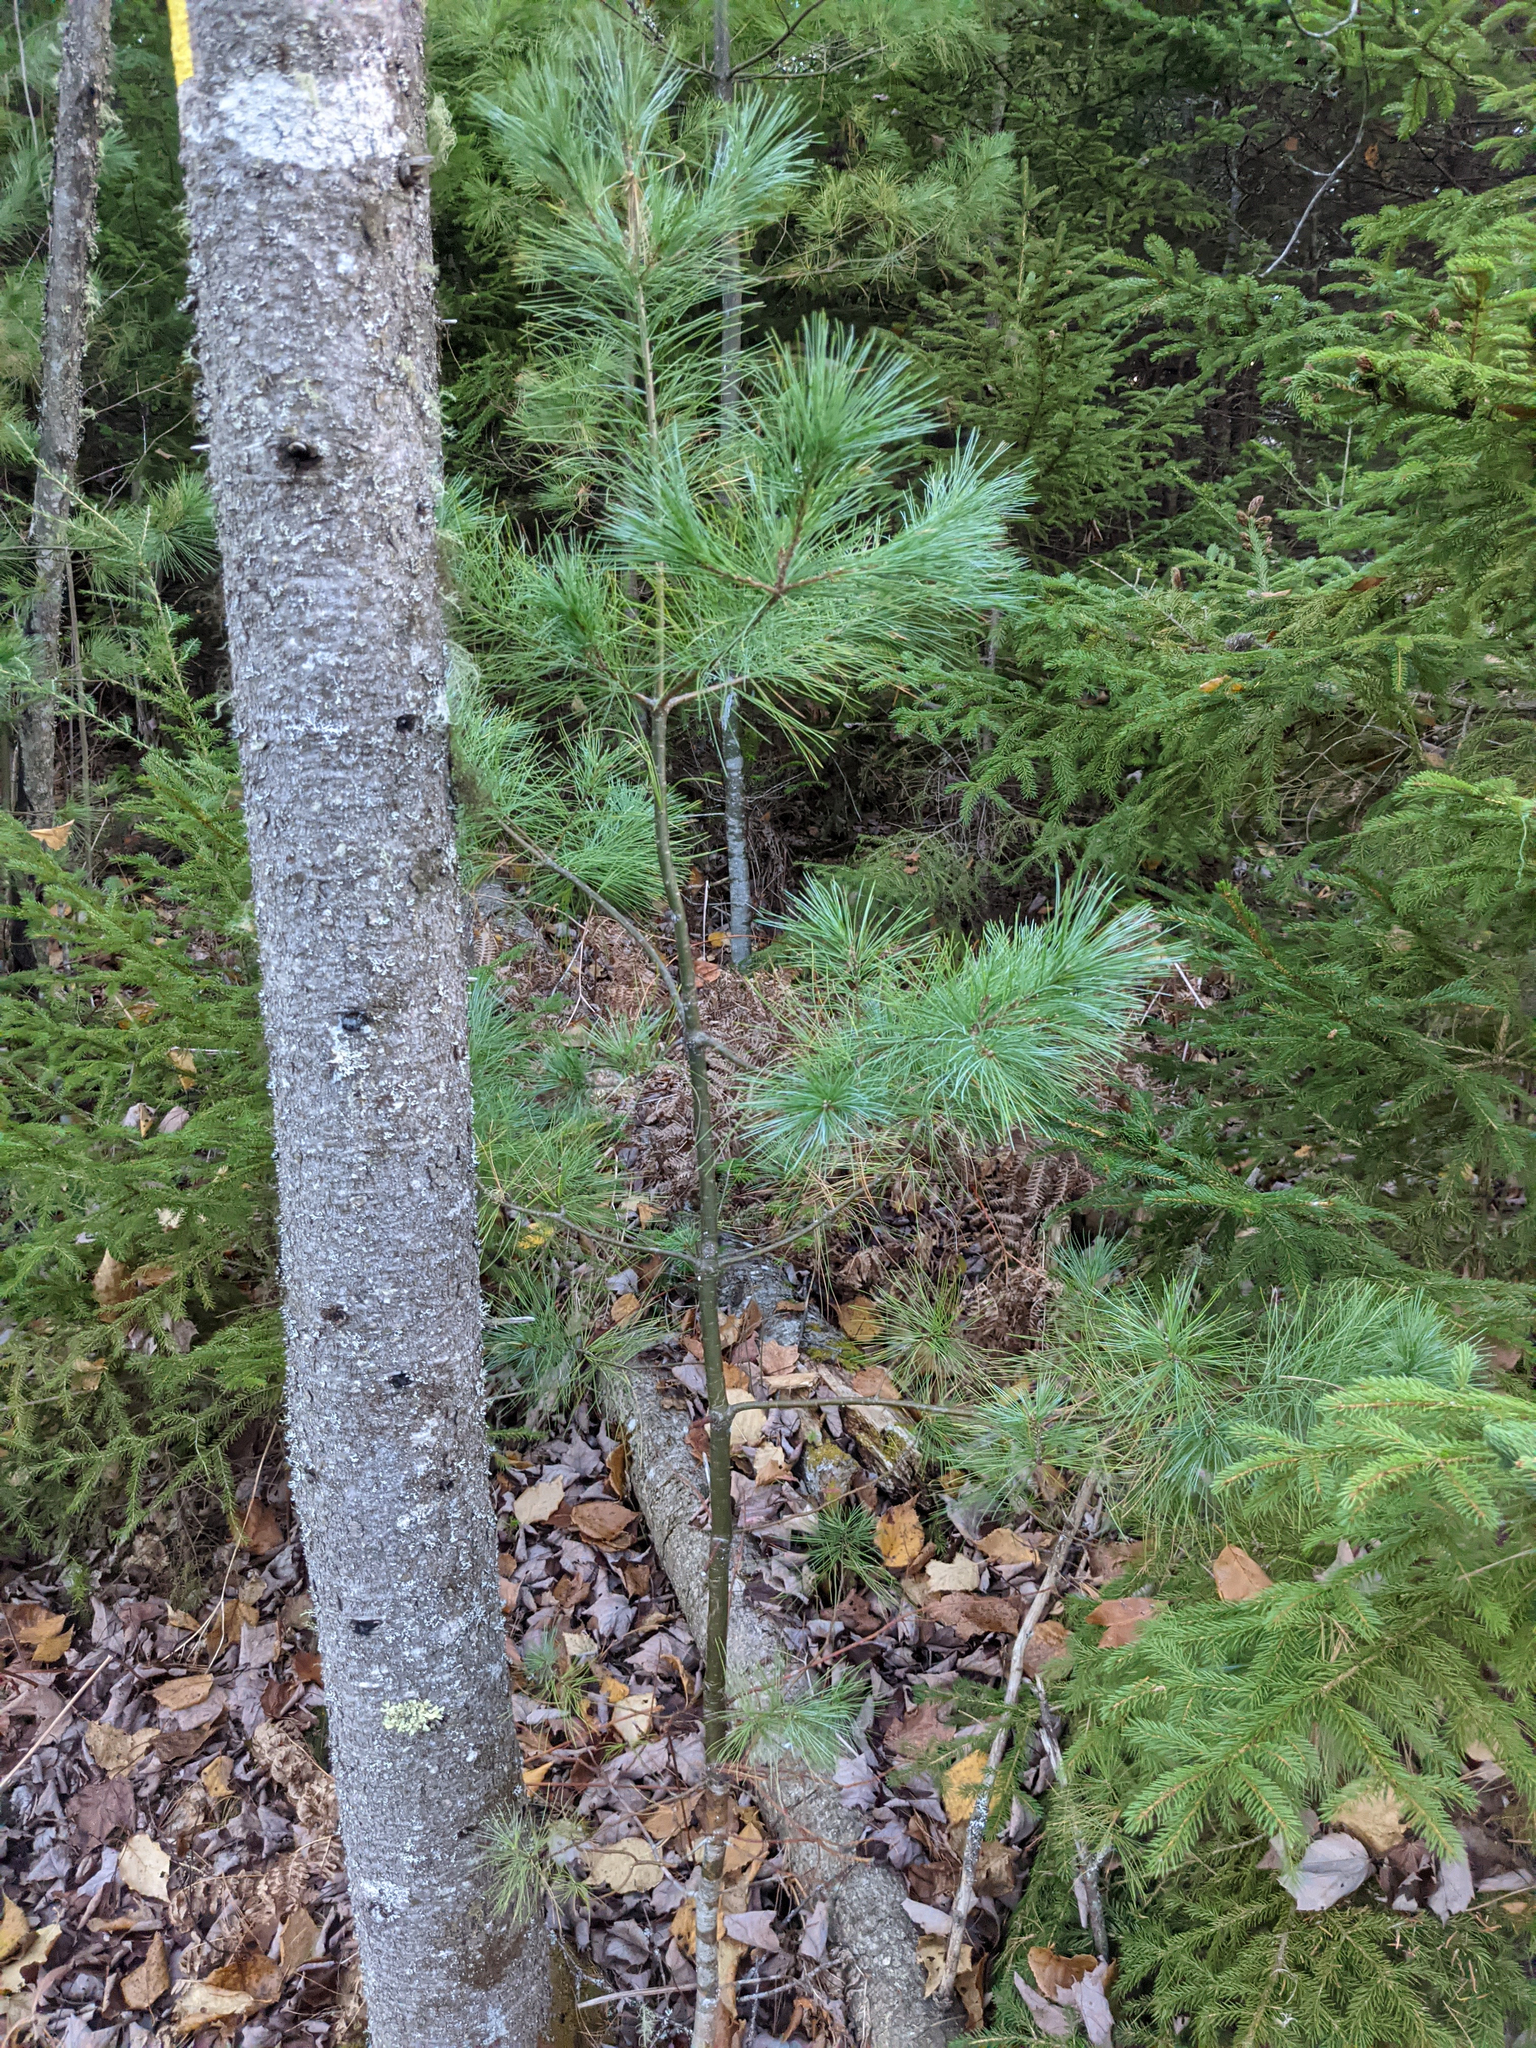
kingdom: Plantae
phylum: Tracheophyta
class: Pinopsida
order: Pinales
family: Pinaceae
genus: Pinus
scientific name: Pinus strobus
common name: Weymouth pine
